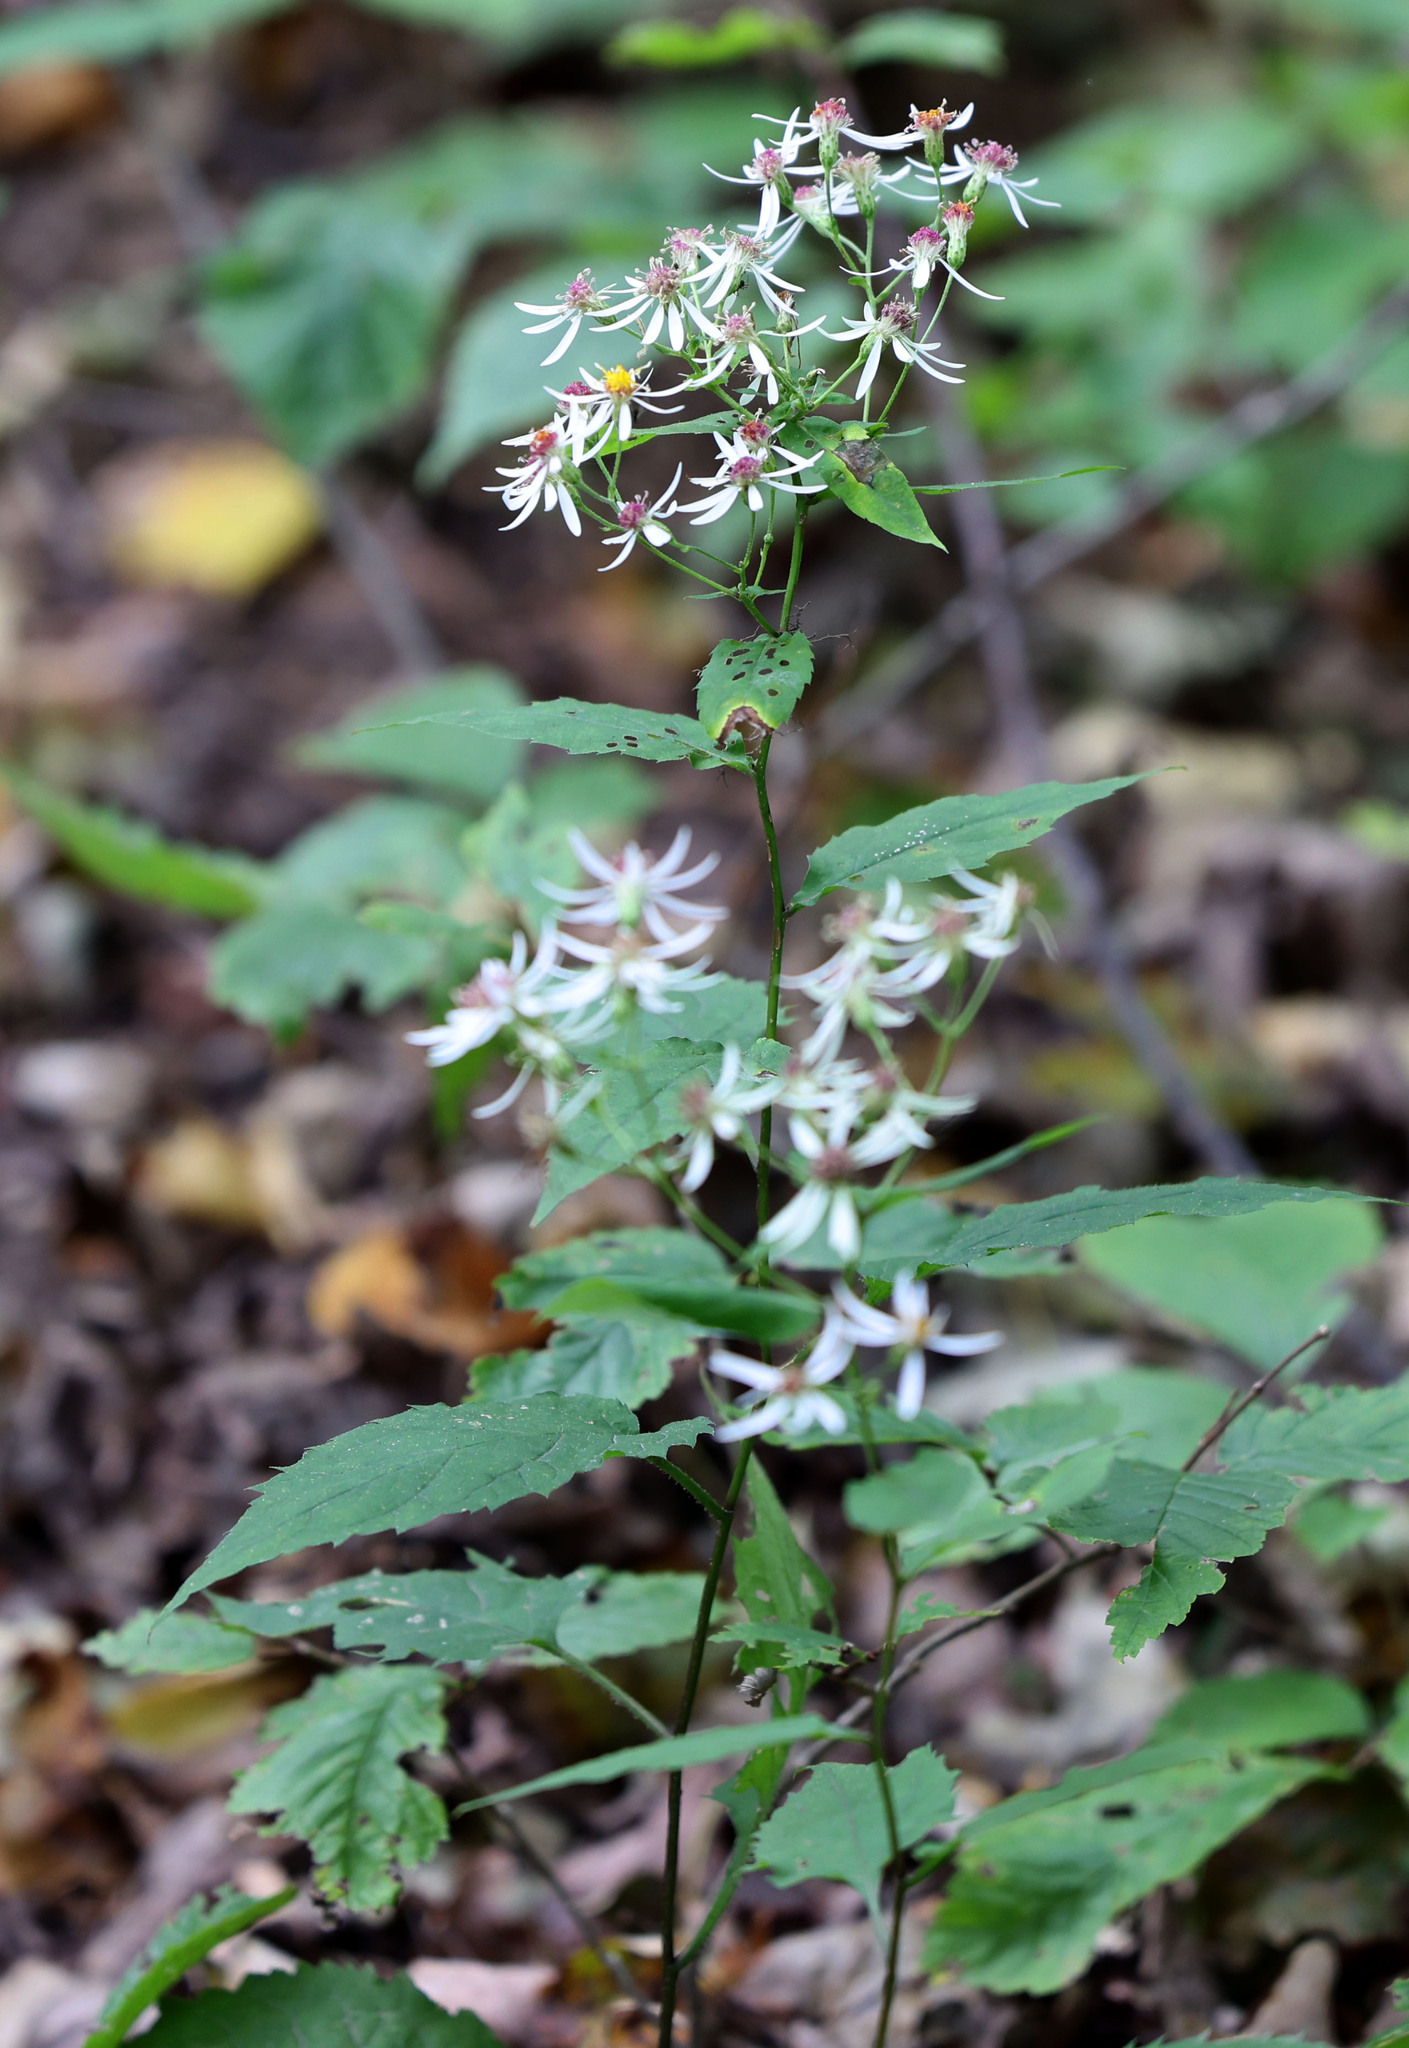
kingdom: Plantae
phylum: Tracheophyta
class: Magnoliopsida
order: Asterales
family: Asteraceae
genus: Eurybia
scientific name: Eurybia divaricata
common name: White wood aster
